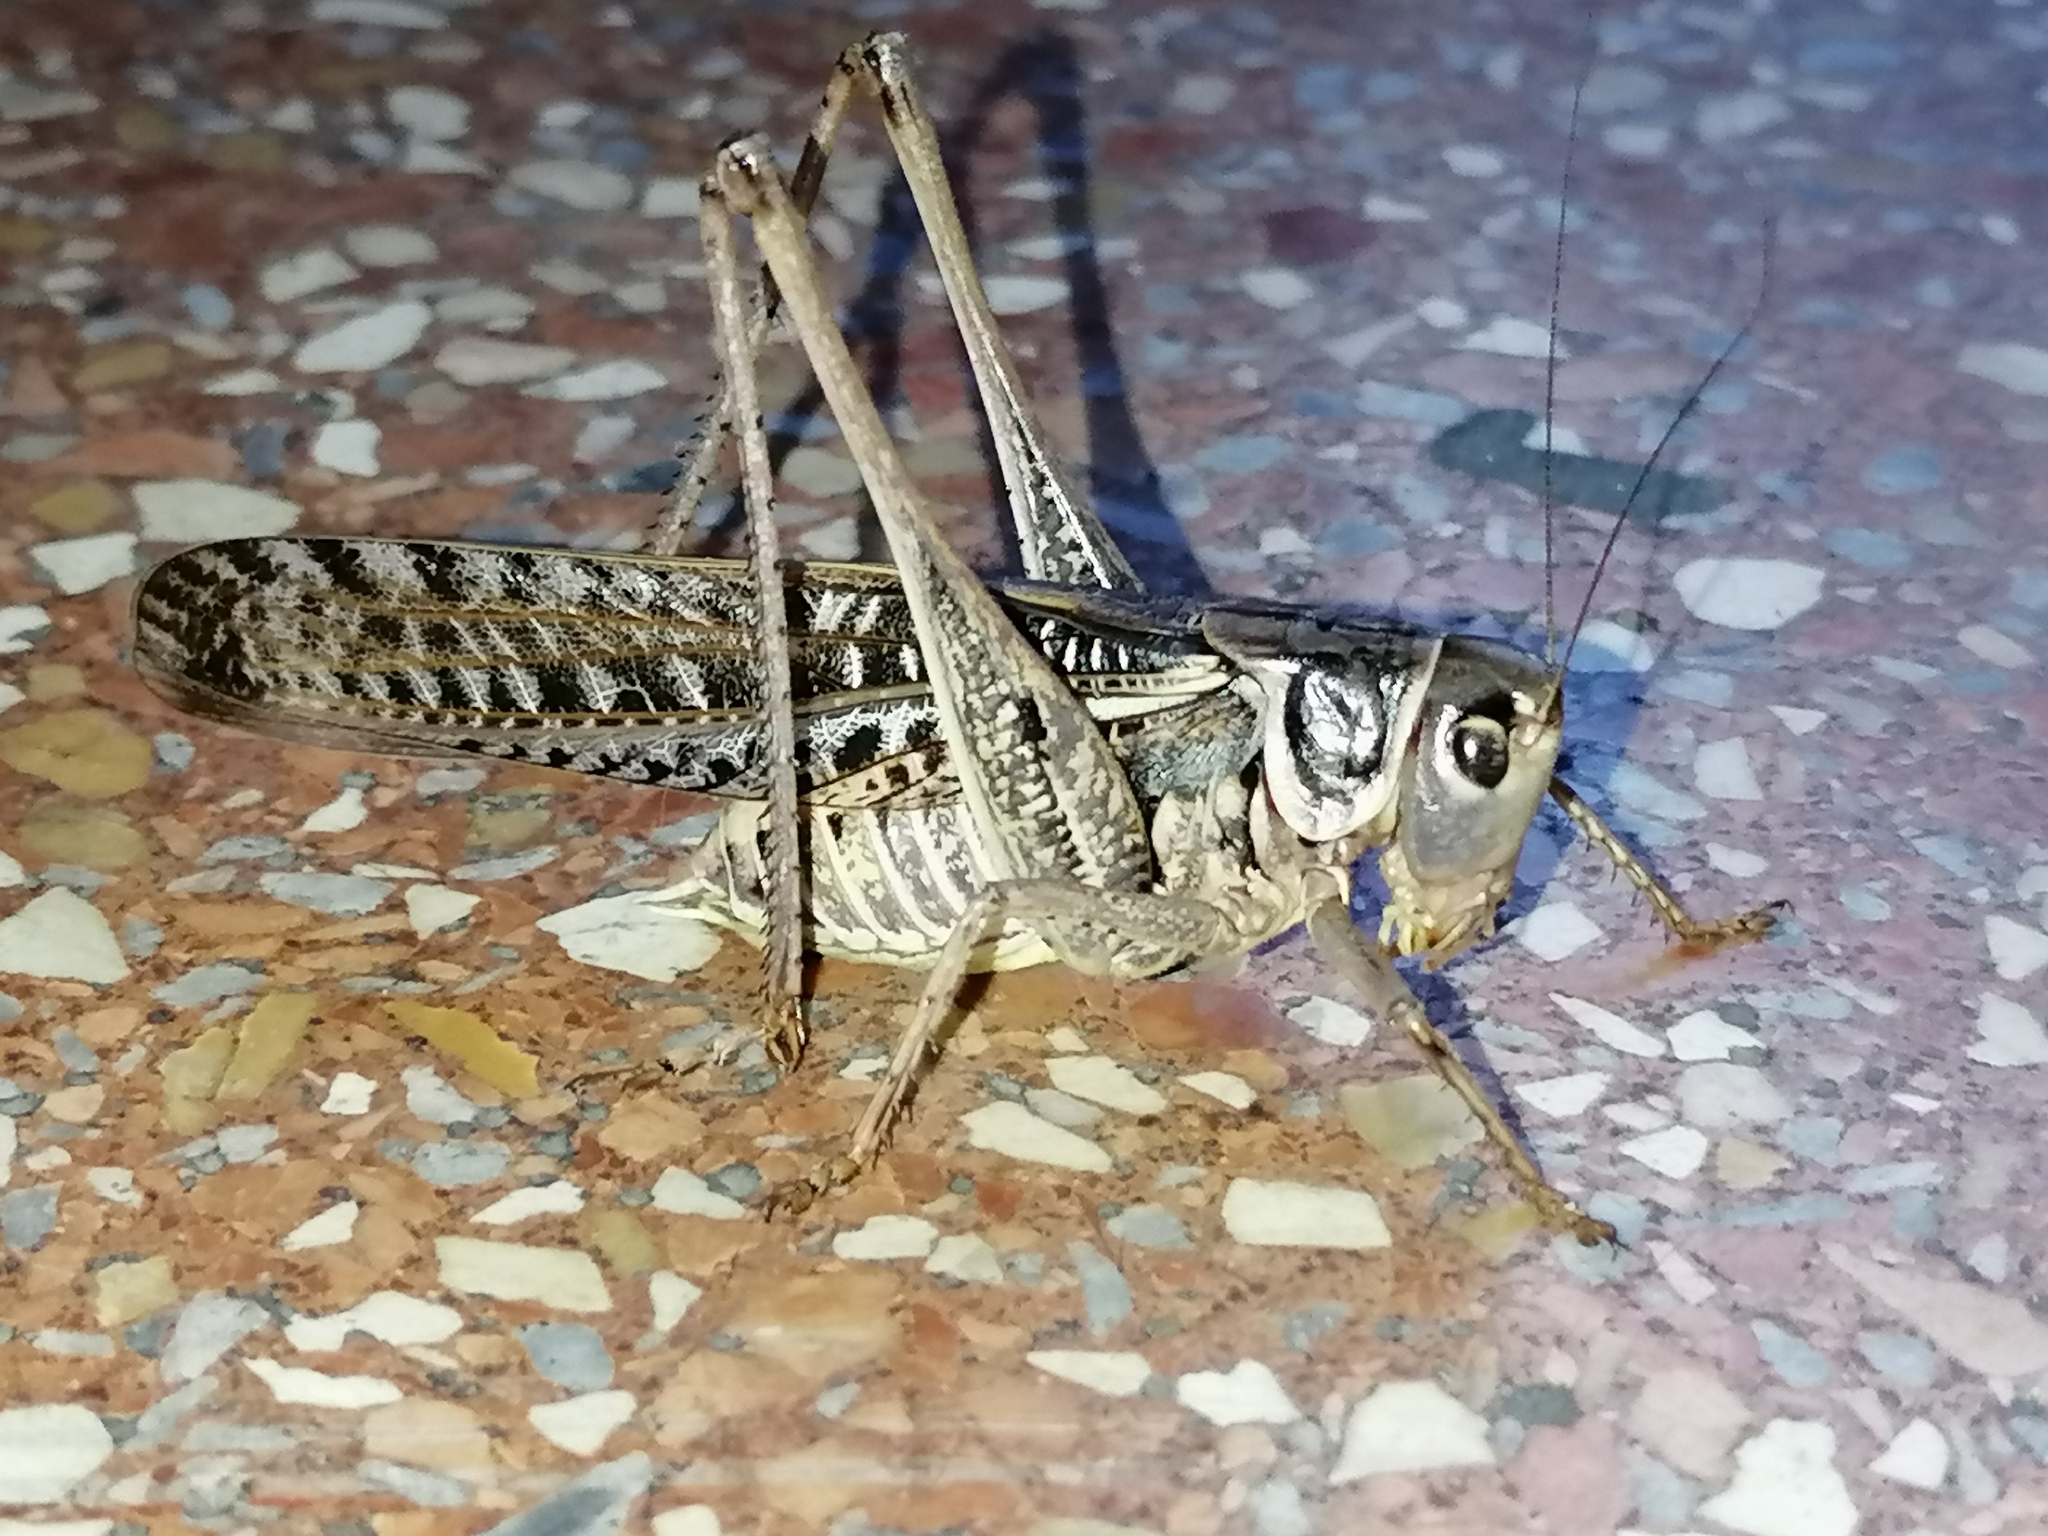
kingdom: Animalia
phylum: Arthropoda
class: Insecta
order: Orthoptera
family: Tettigoniidae
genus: Decticus
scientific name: Decticus albifrons
